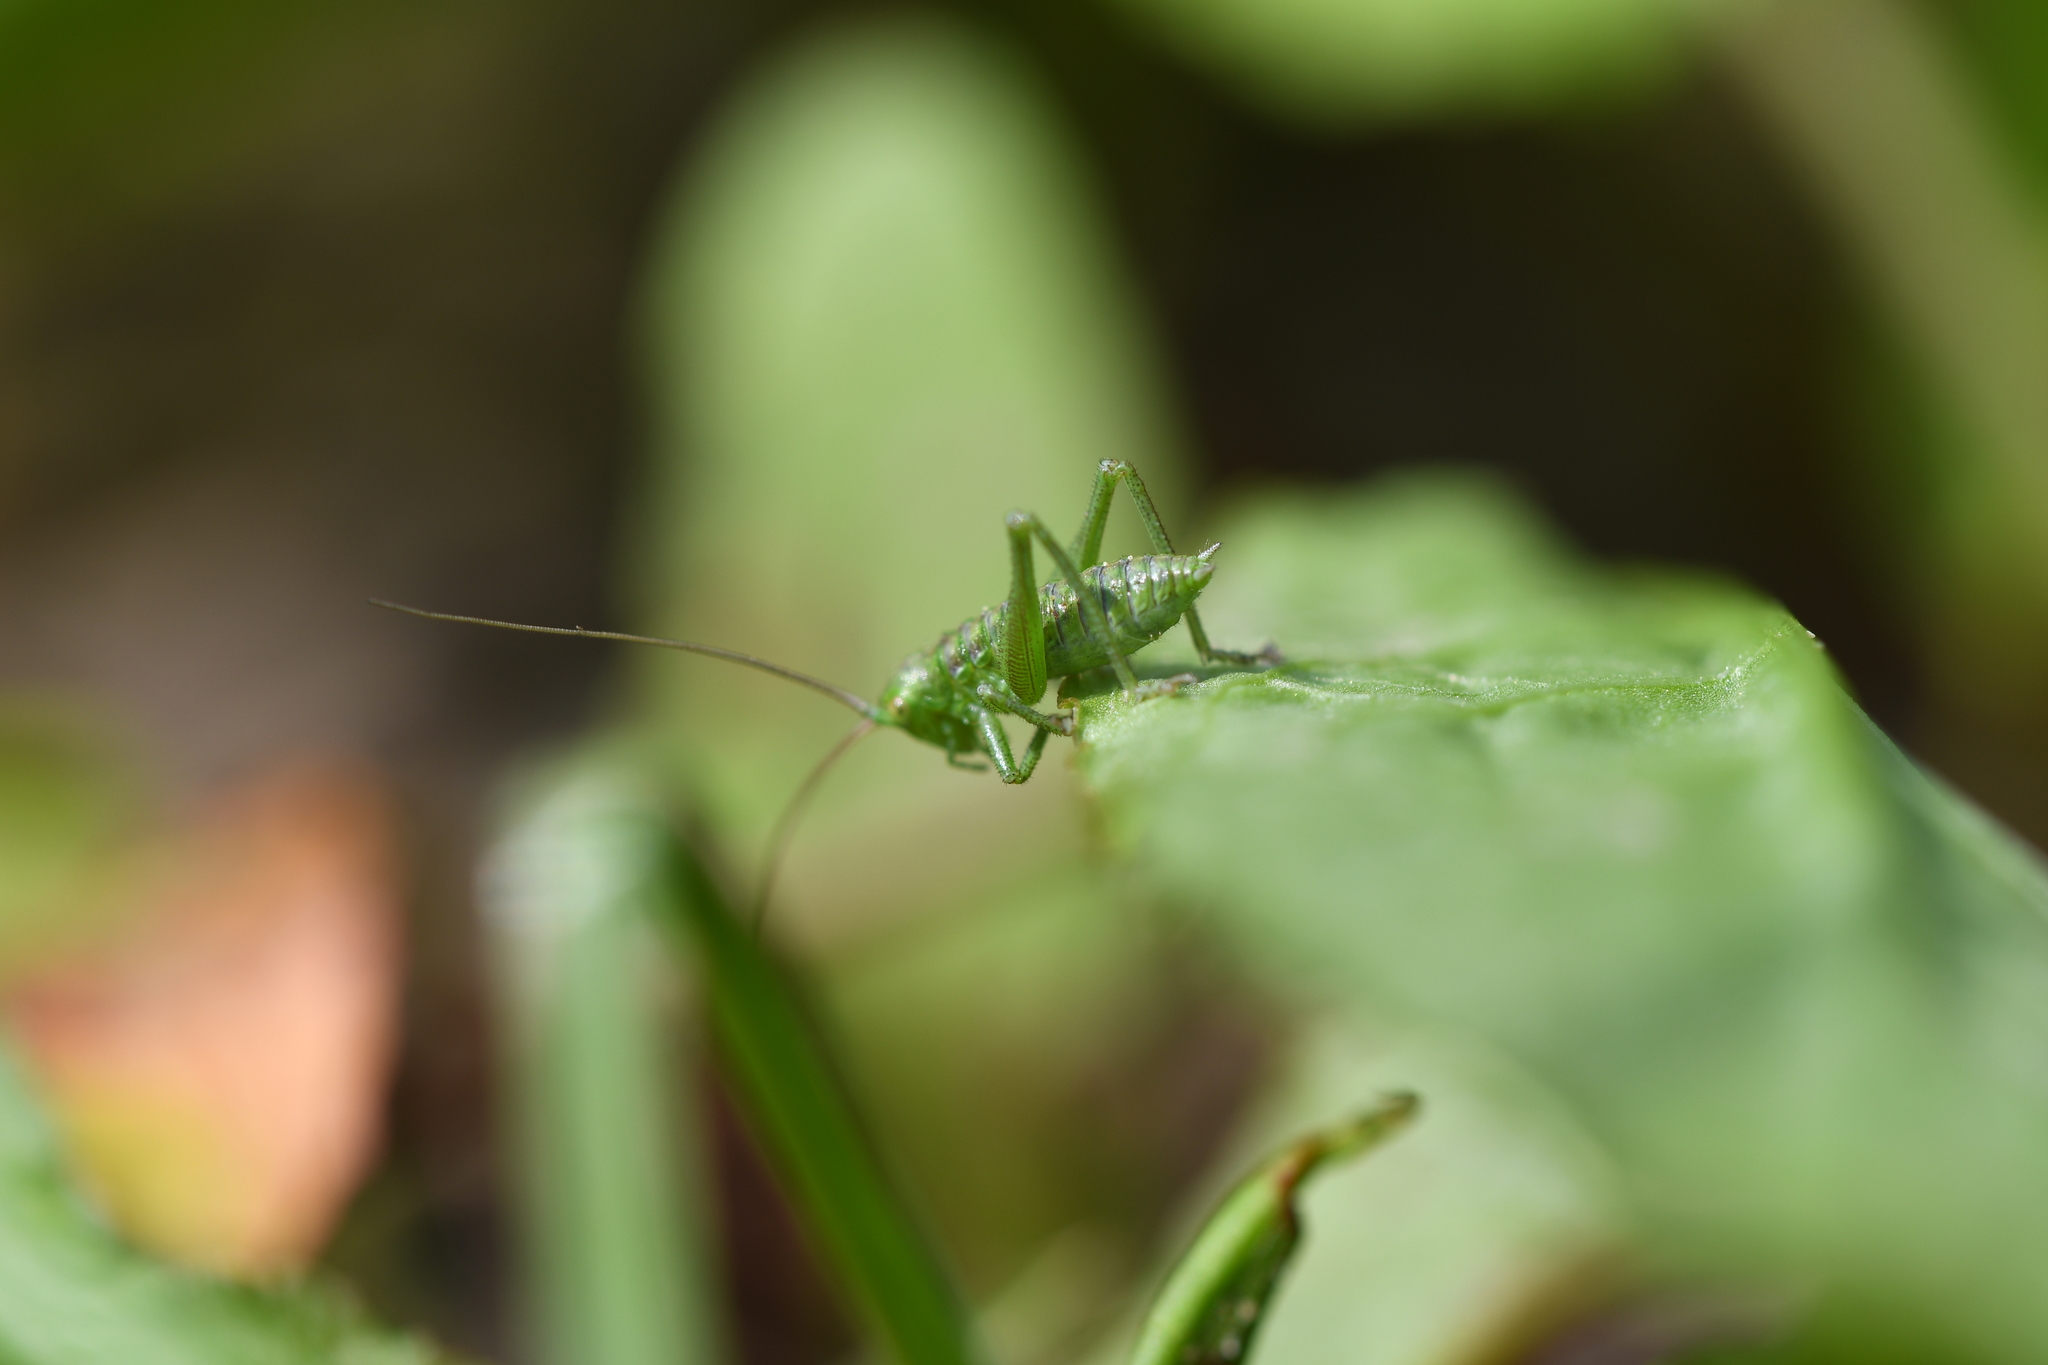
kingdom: Animalia
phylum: Arthropoda
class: Insecta
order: Orthoptera
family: Tettigoniidae
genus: Tettigonia
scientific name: Tettigonia viridissima
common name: Great green bush-cricket
